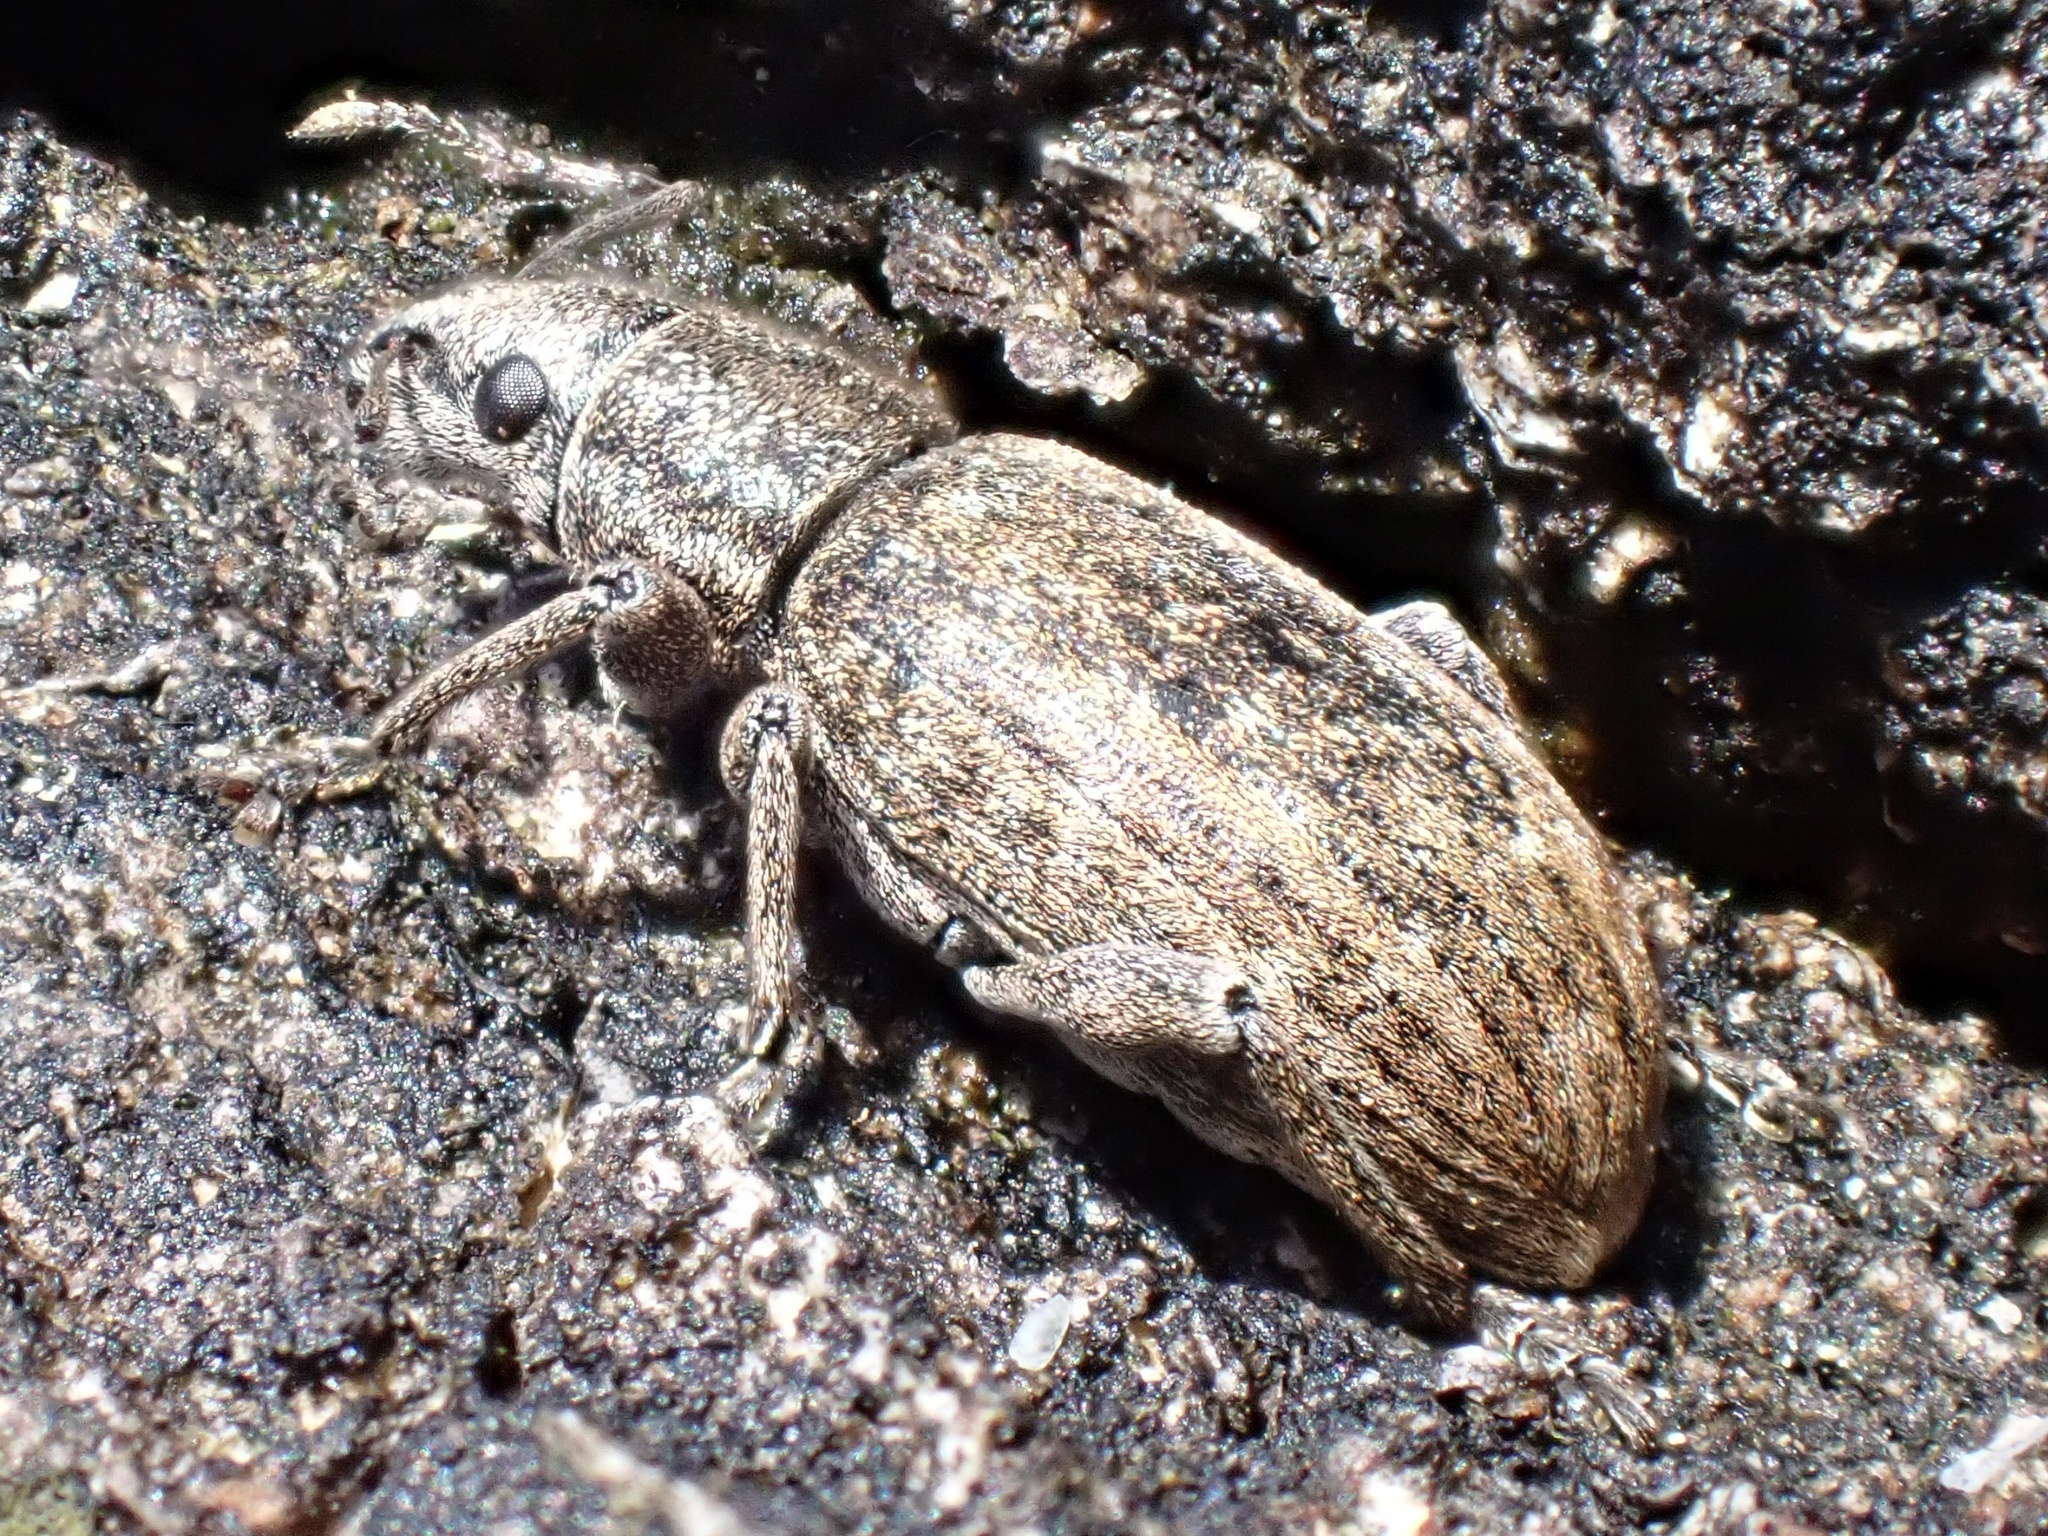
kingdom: Animalia
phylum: Arthropoda
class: Insecta
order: Coleoptera
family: Curculionidae
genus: Brachyderes
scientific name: Brachyderes incanus
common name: Weevil
